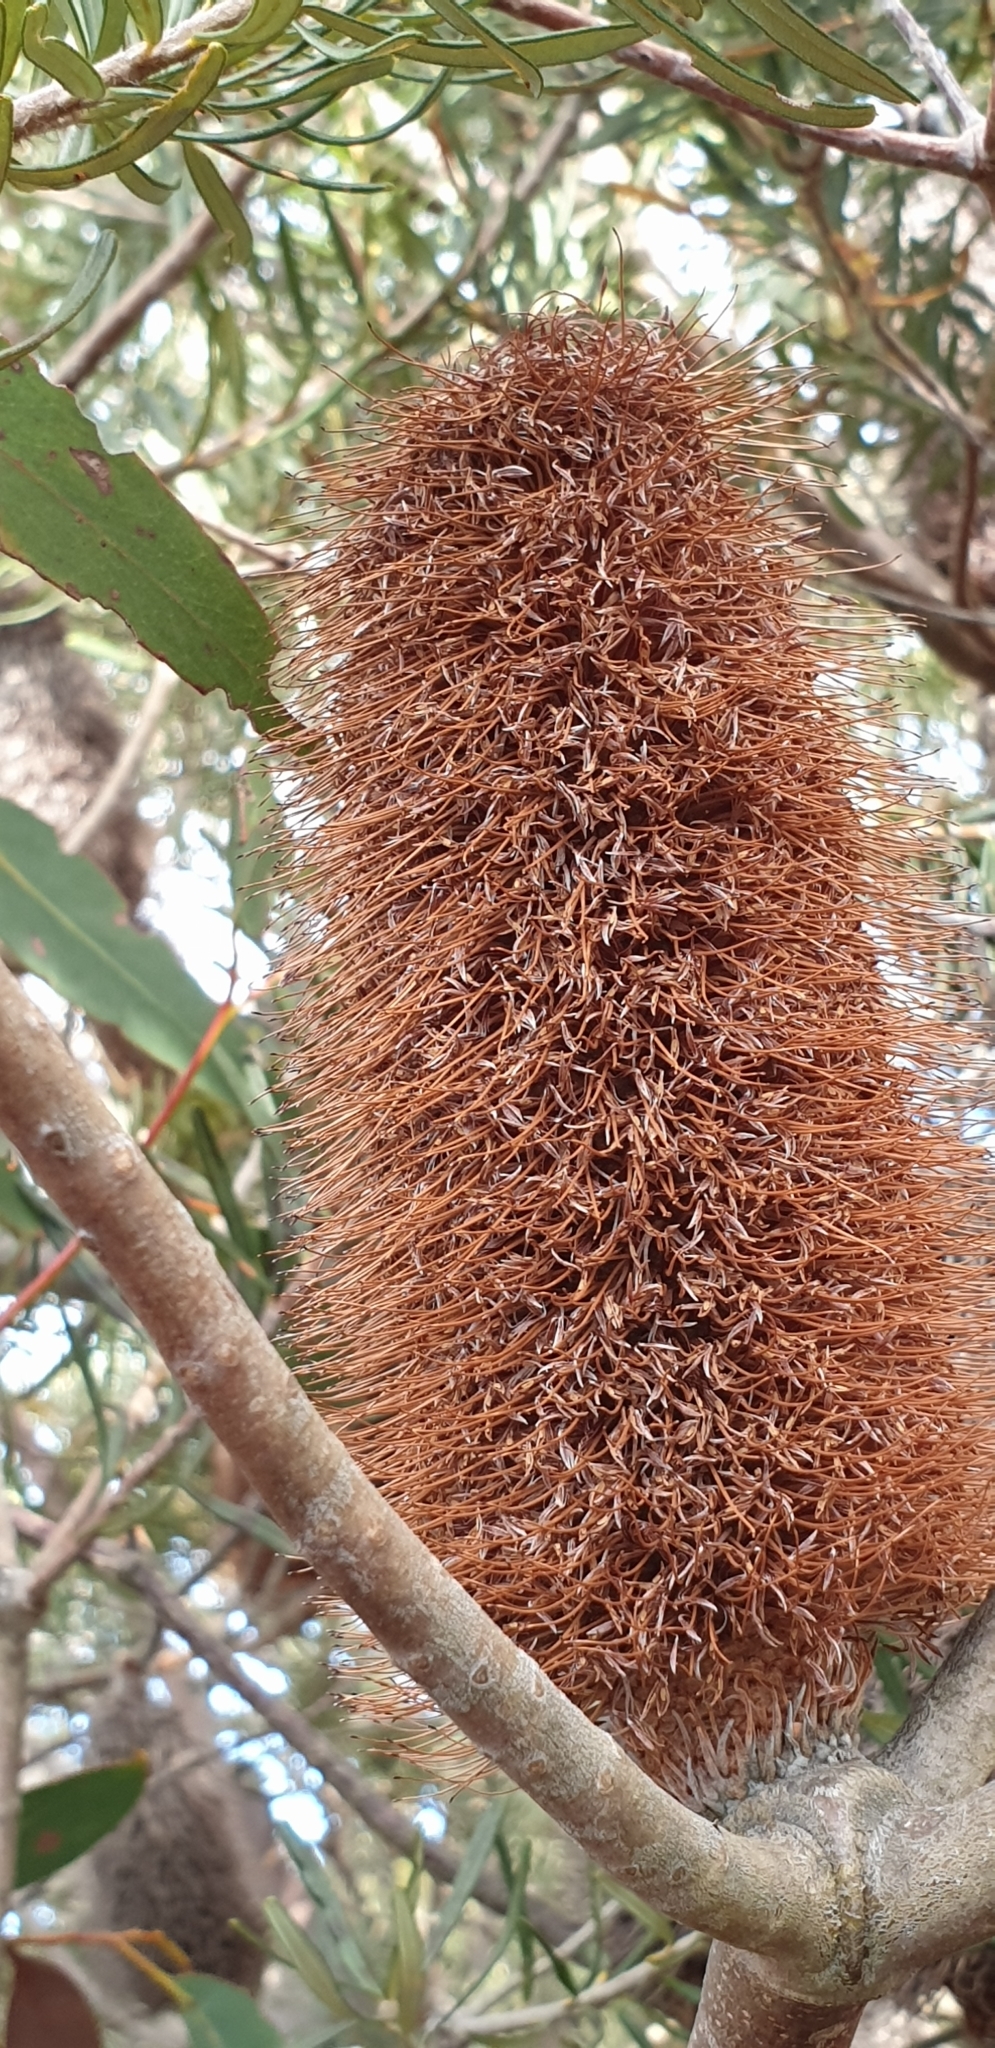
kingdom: Plantae
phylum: Tracheophyta
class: Magnoliopsida
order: Proteales
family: Proteaceae
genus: Banksia
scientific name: Banksia marginata
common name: Silver banksia
